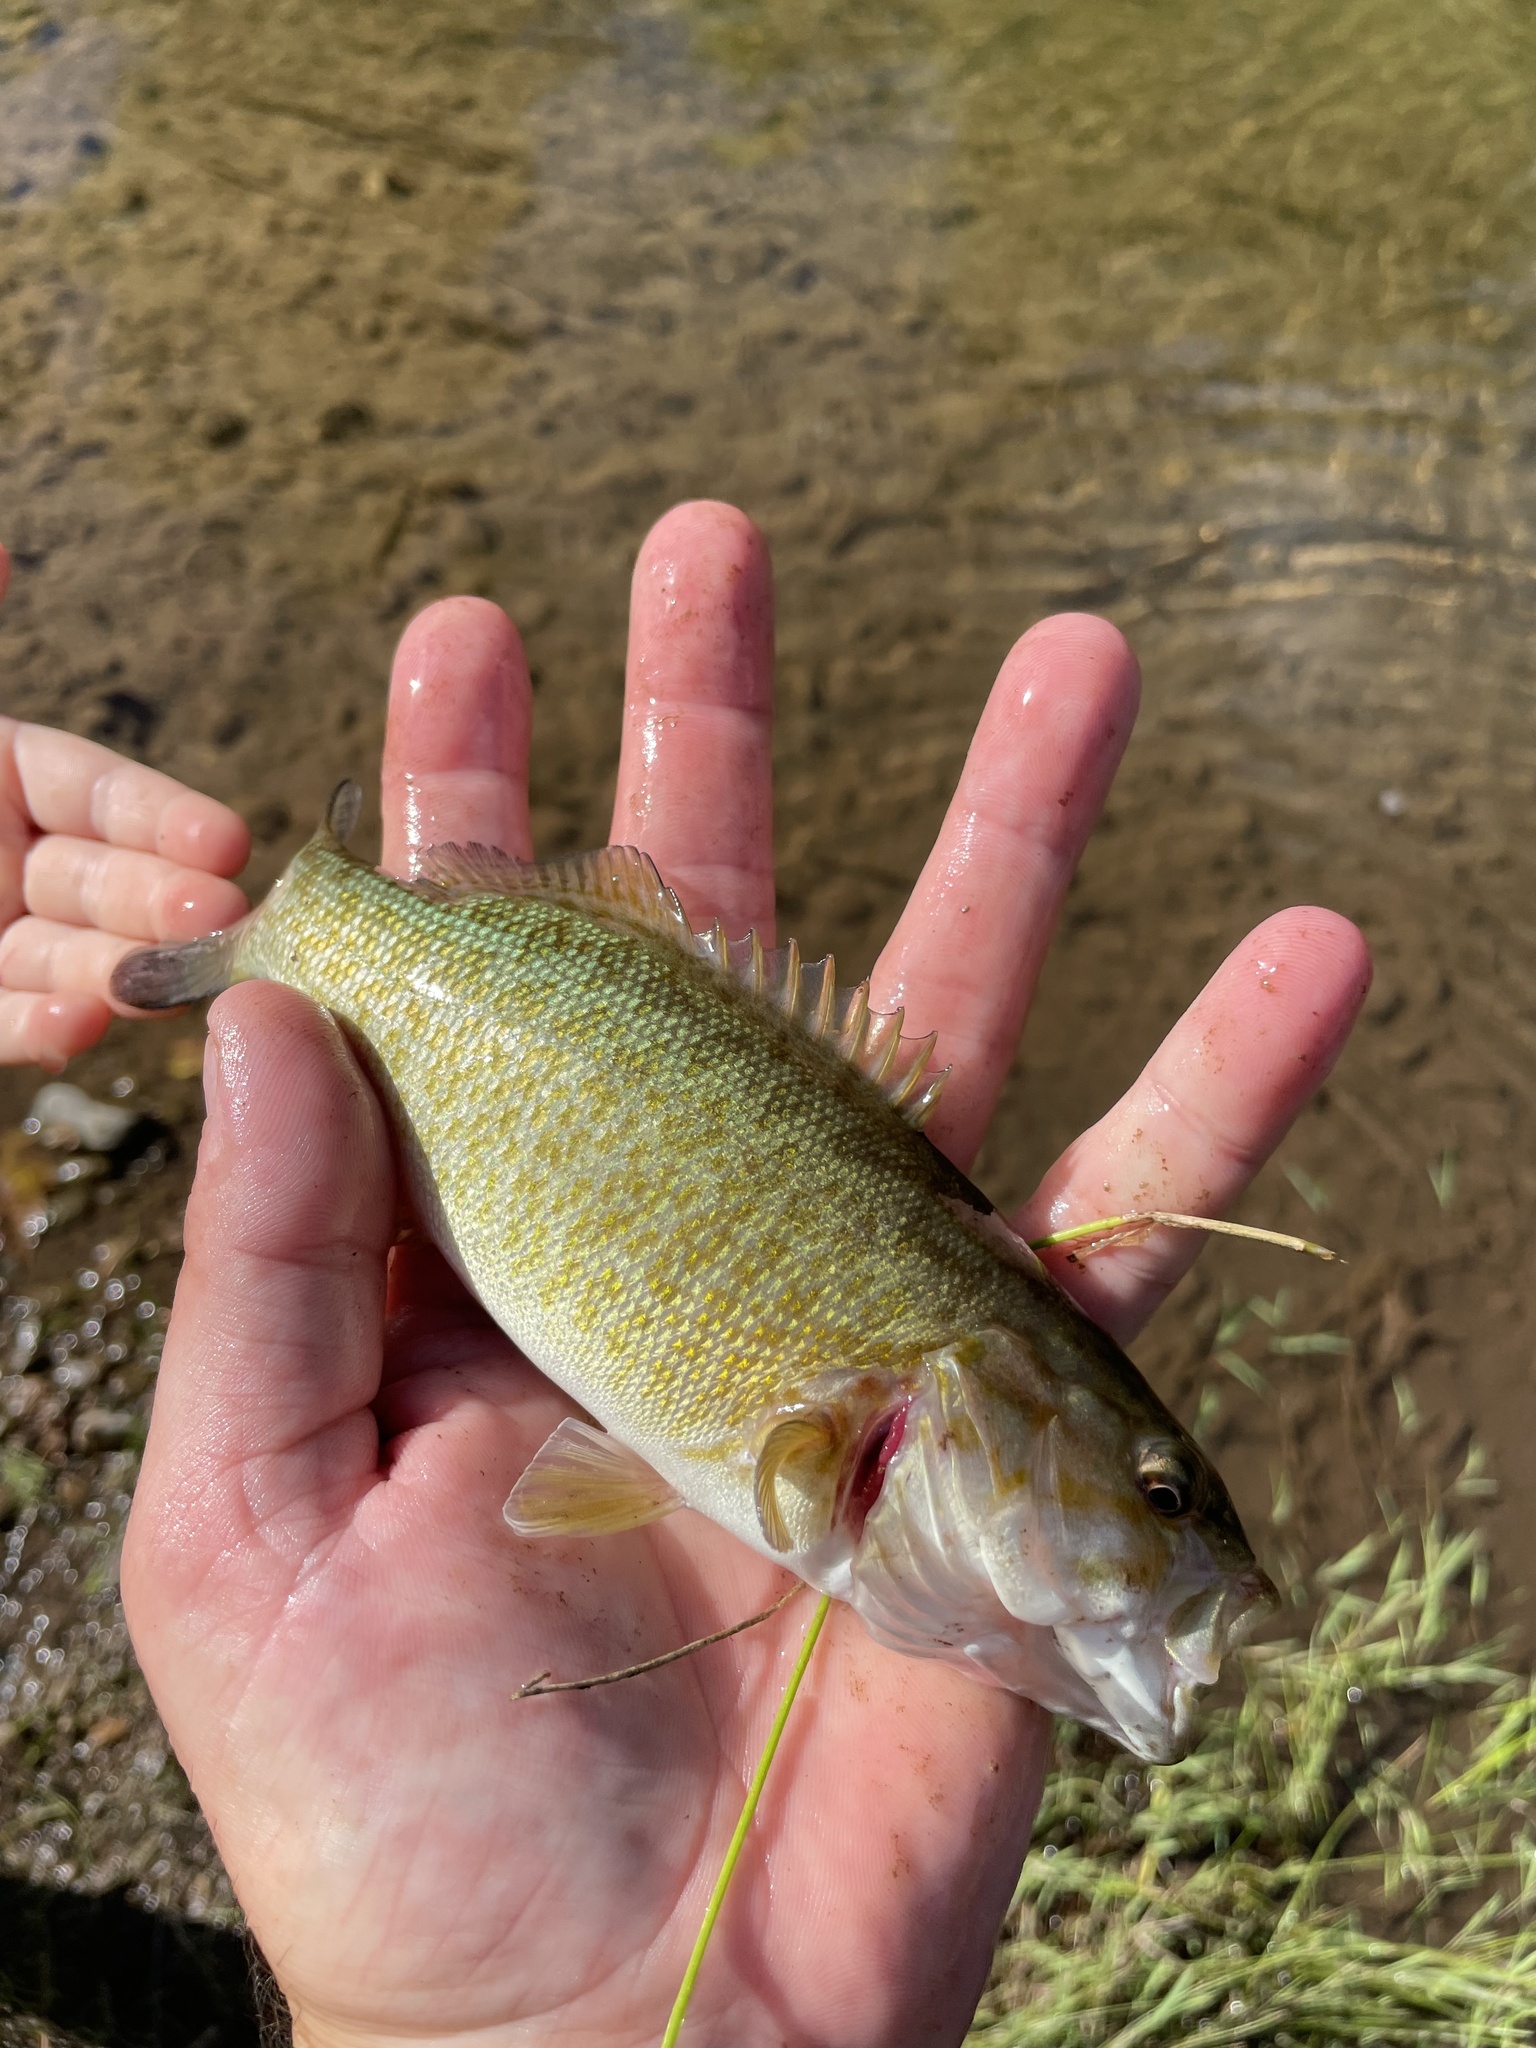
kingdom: Animalia
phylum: Chordata
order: Perciformes
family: Centrarchidae
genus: Micropterus
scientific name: Micropterus dolomieu
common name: Smallmouth bass
